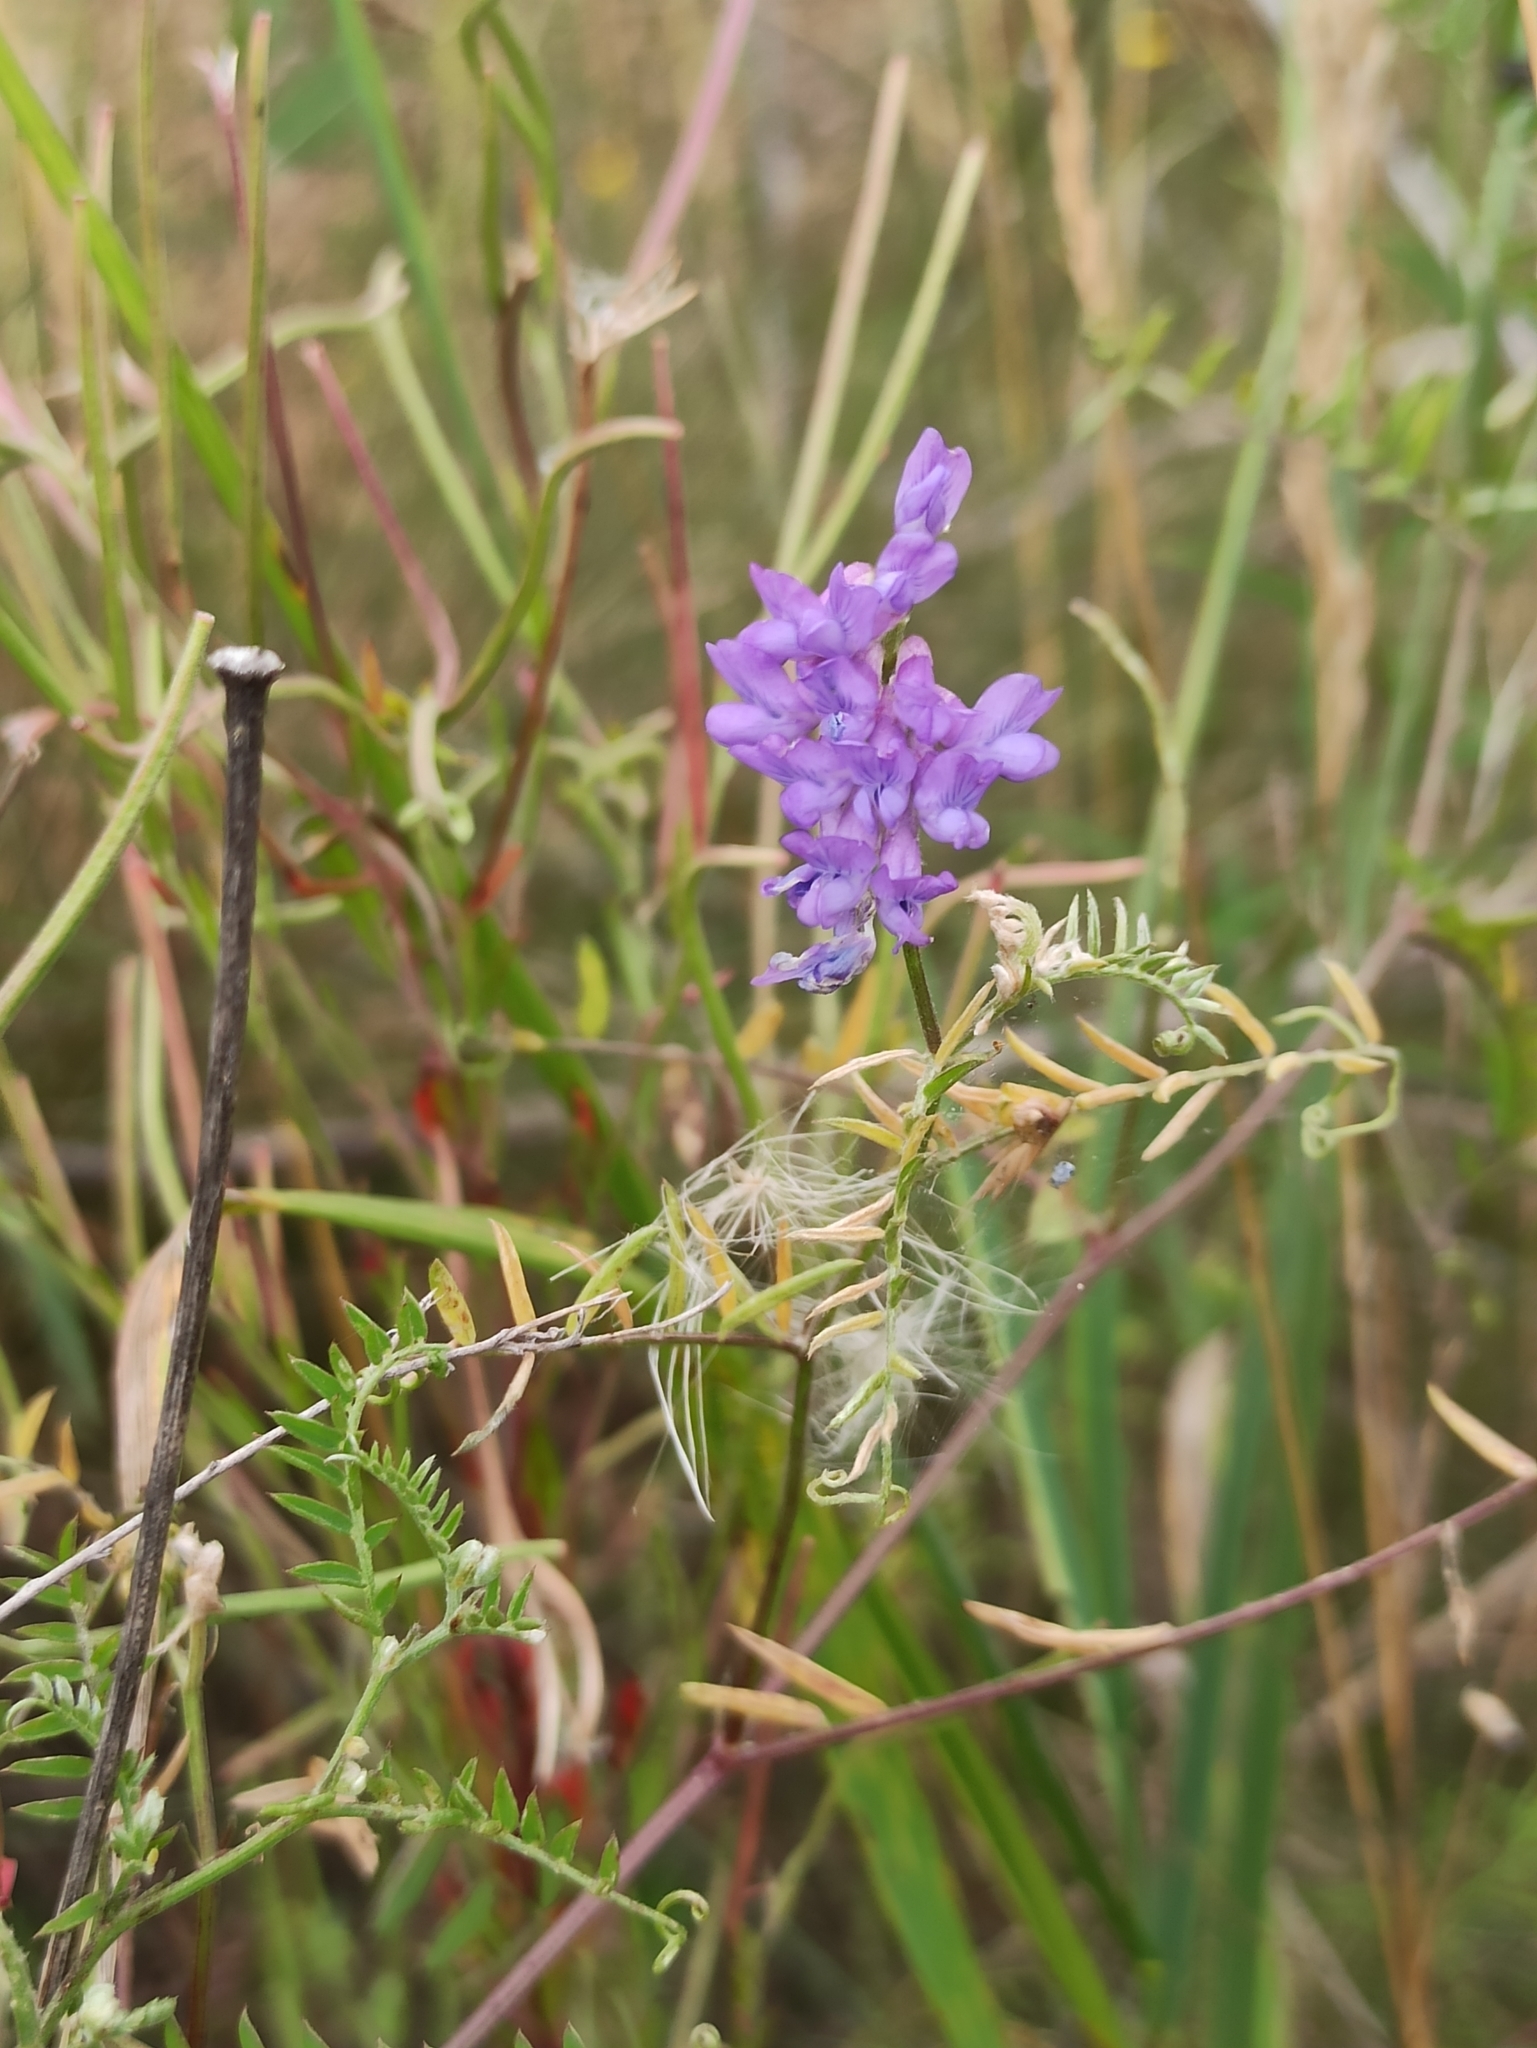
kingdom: Plantae
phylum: Tracheophyta
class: Magnoliopsida
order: Fabales
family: Fabaceae
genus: Vicia
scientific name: Vicia cracca
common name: Bird vetch
